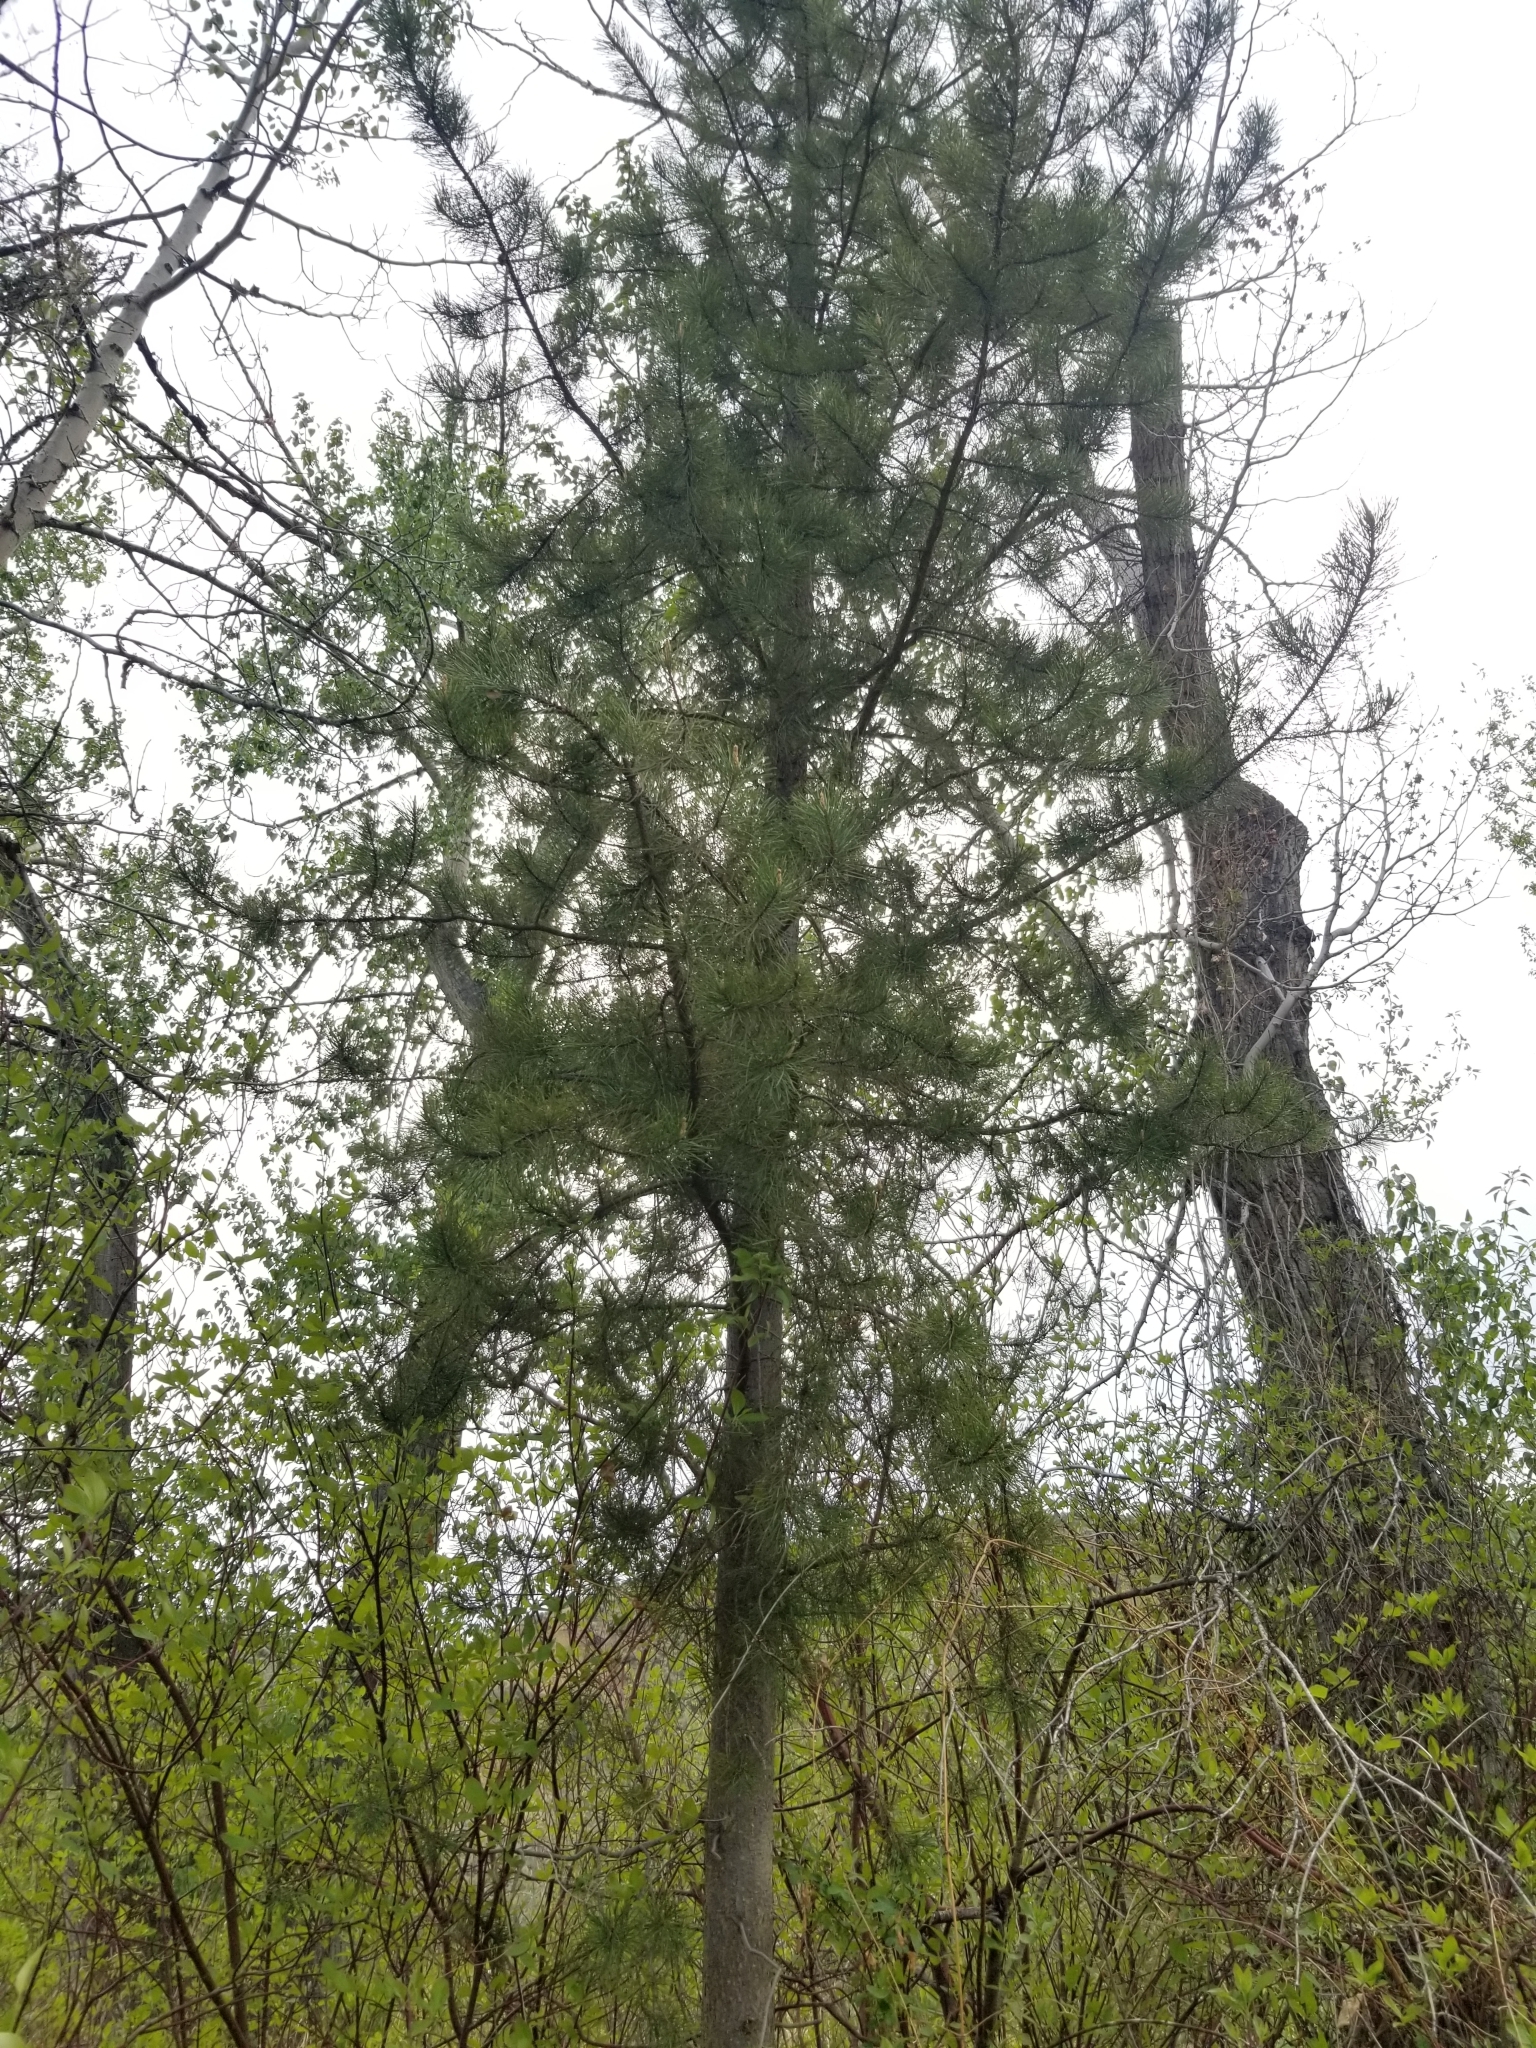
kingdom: Plantae
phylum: Tracheophyta
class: Pinopsida
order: Pinales
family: Pinaceae
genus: Pinus
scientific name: Pinus contorta
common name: Lodgepole pine
